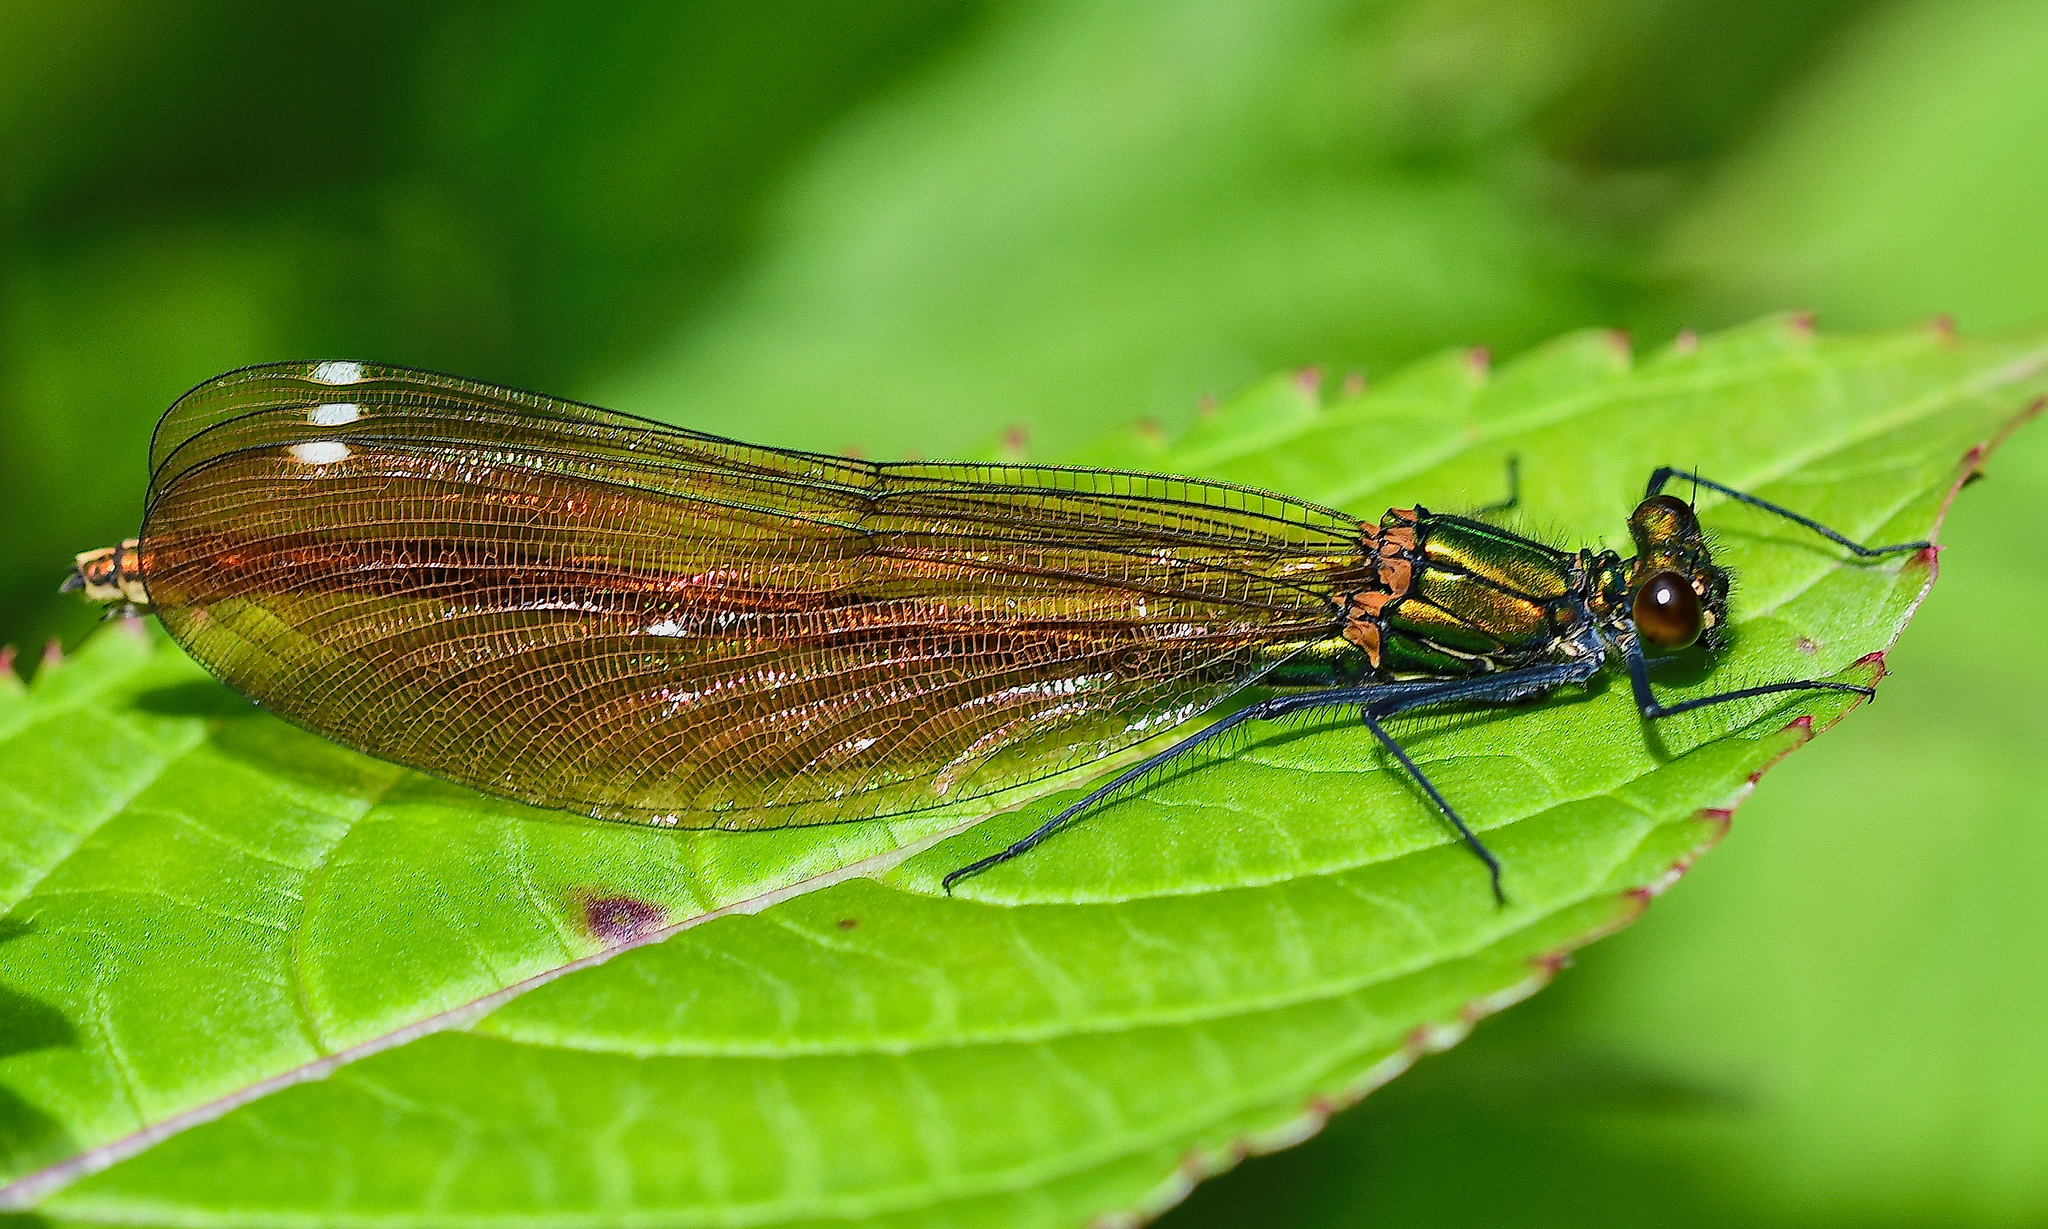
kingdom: Animalia
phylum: Arthropoda
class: Insecta
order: Odonata
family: Calopterygidae
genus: Calopteryx
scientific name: Calopteryx virgo
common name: Beautiful demoiselle
